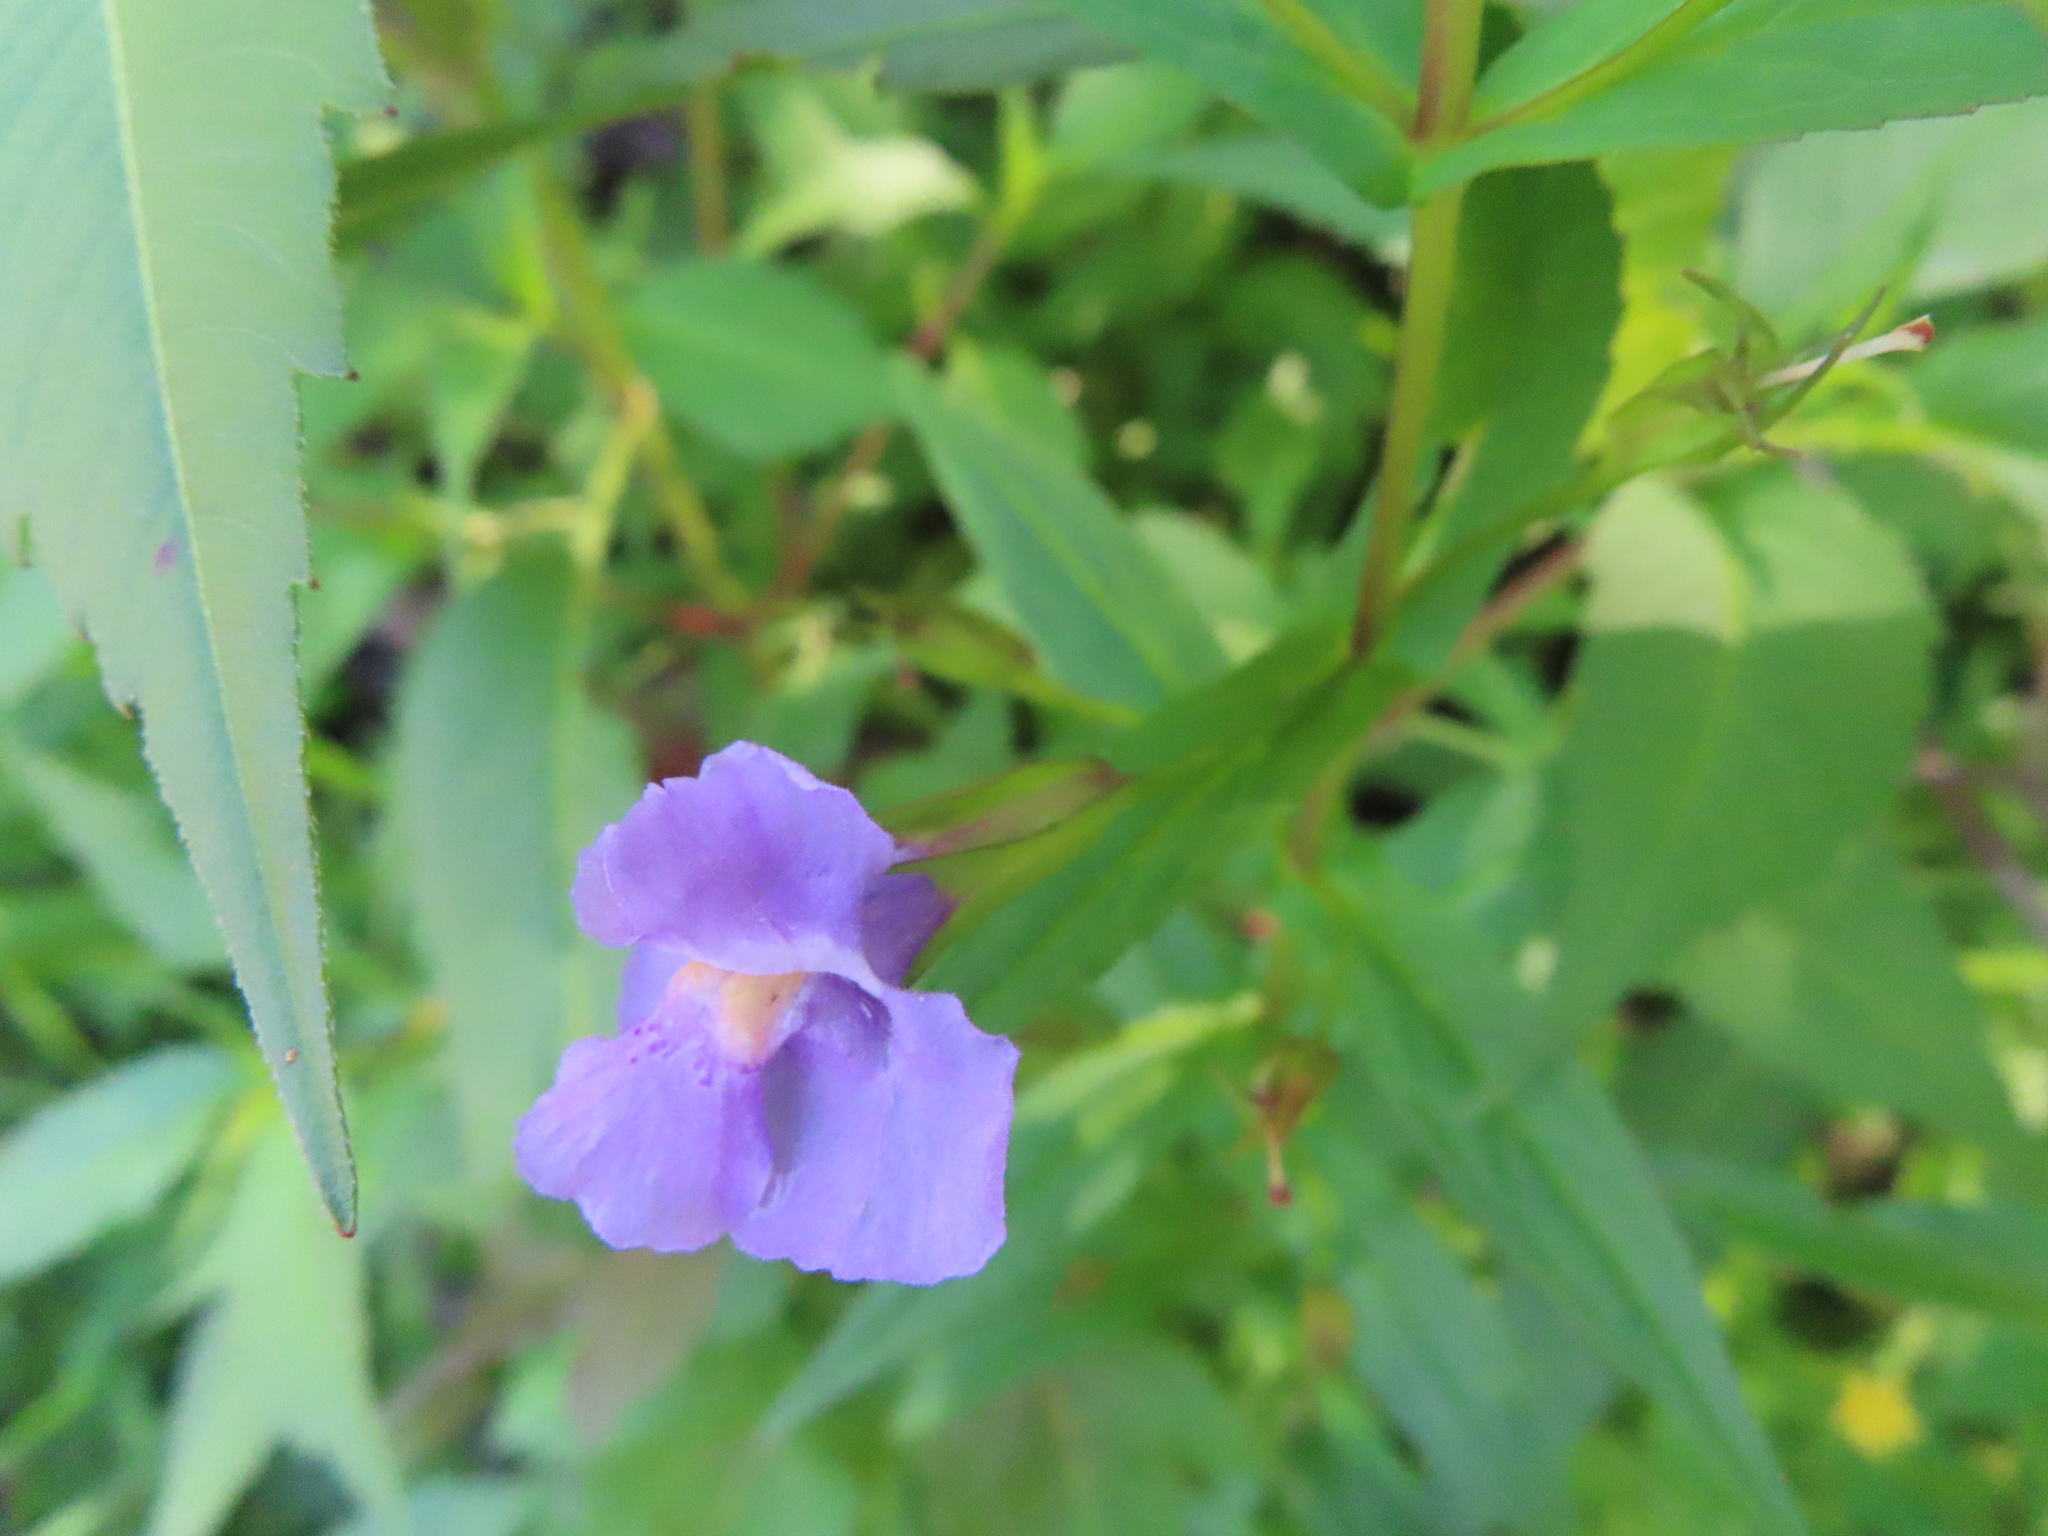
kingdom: Plantae
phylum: Tracheophyta
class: Magnoliopsida
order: Lamiales
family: Phrymaceae
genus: Mimulus
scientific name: Mimulus ringens
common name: Allegheny monkeyflower
